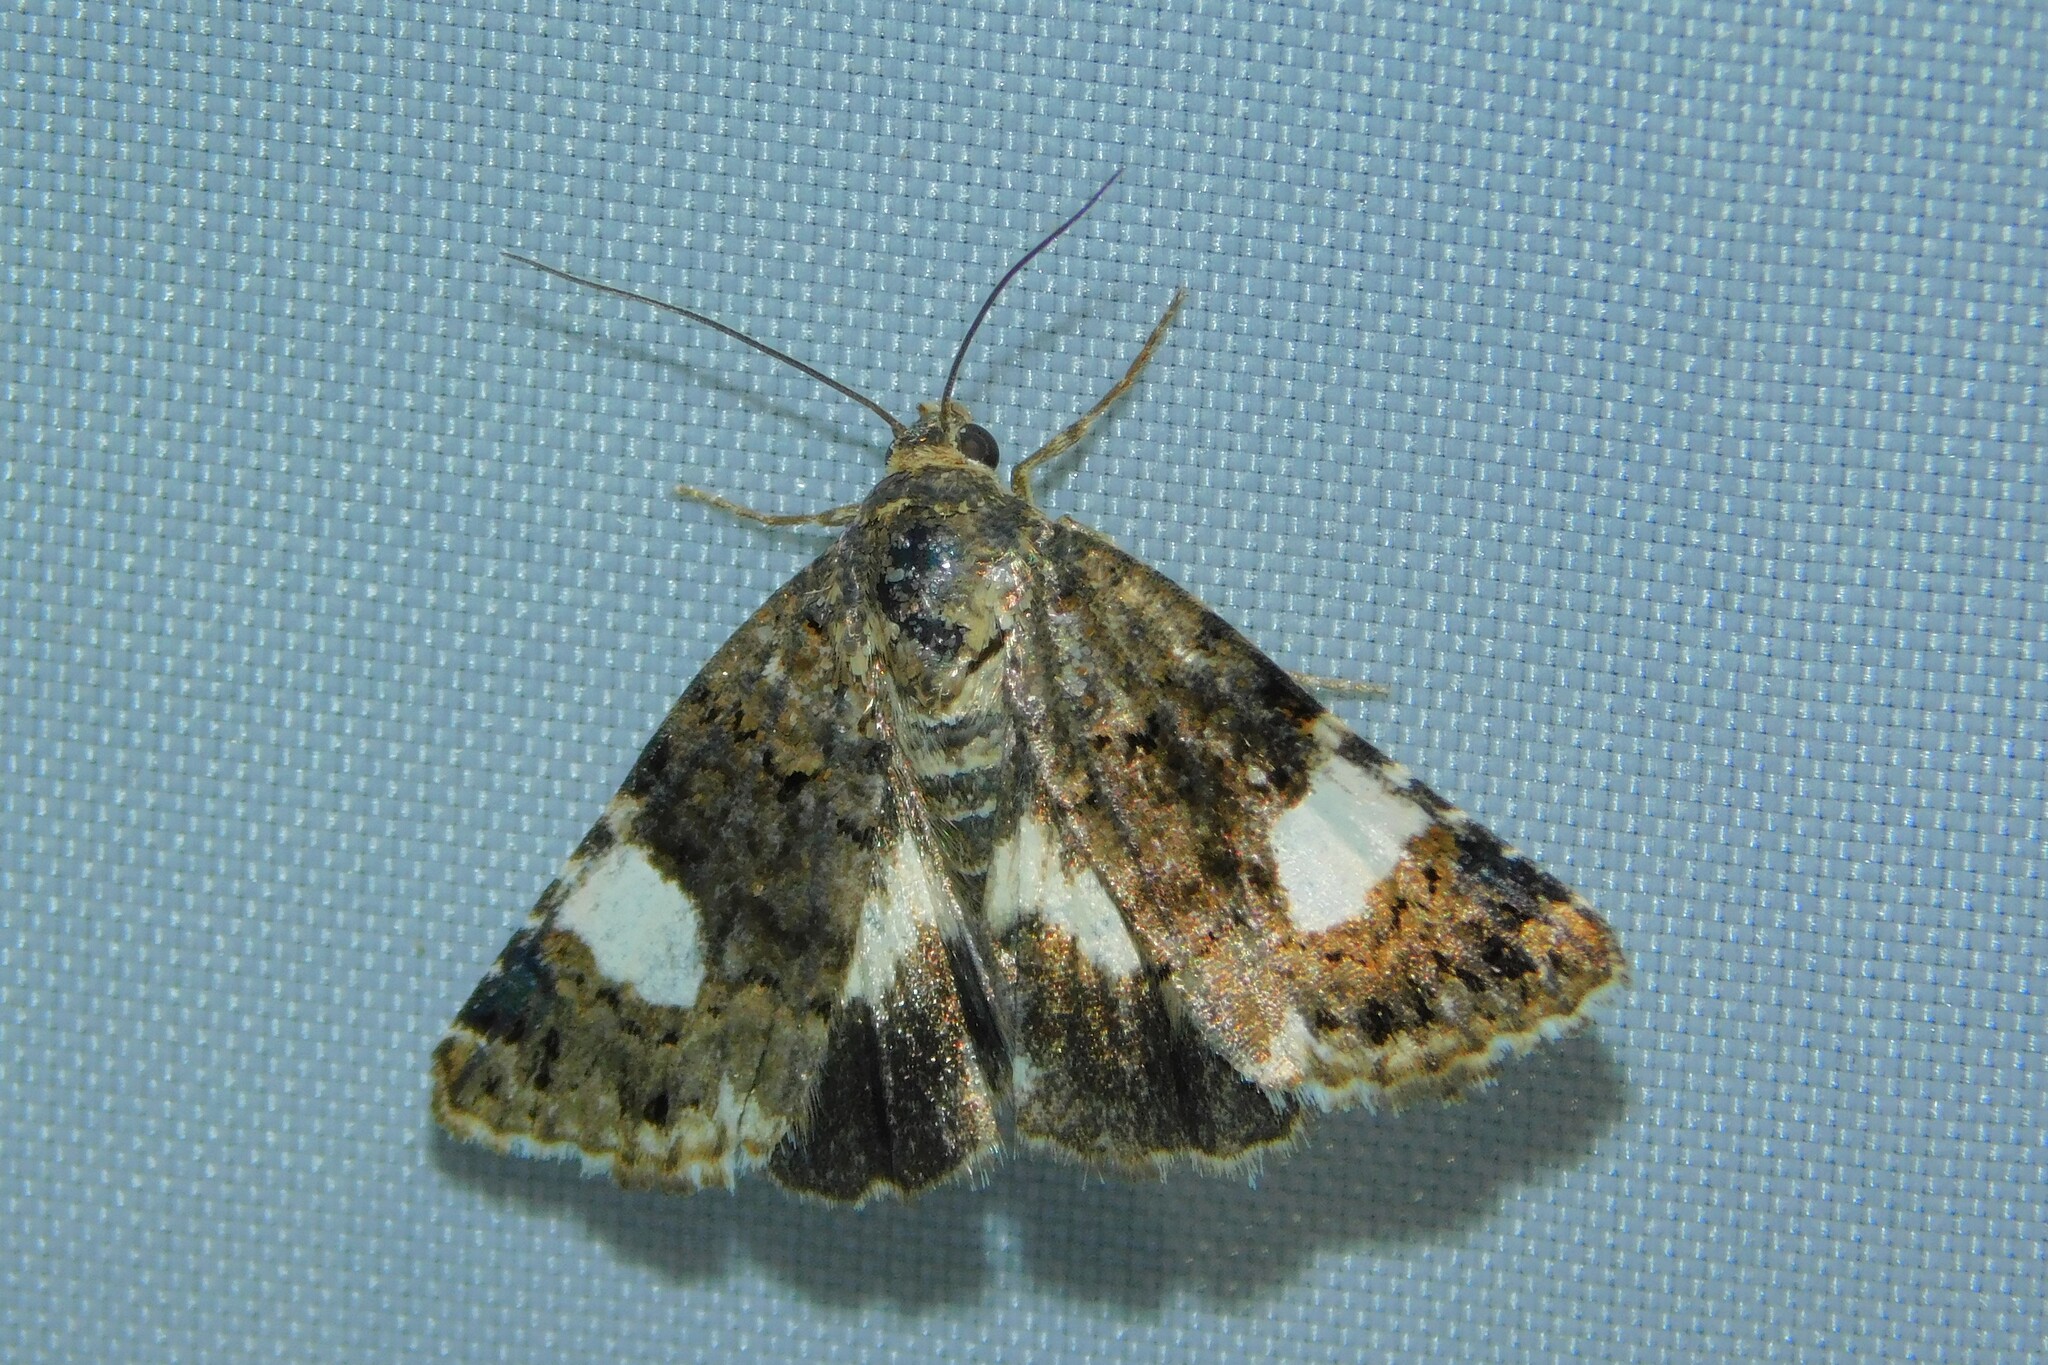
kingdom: Animalia
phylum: Arthropoda
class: Insecta
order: Lepidoptera
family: Erebidae
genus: Tyta
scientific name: Tyta luctuosa
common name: Four-spotted
